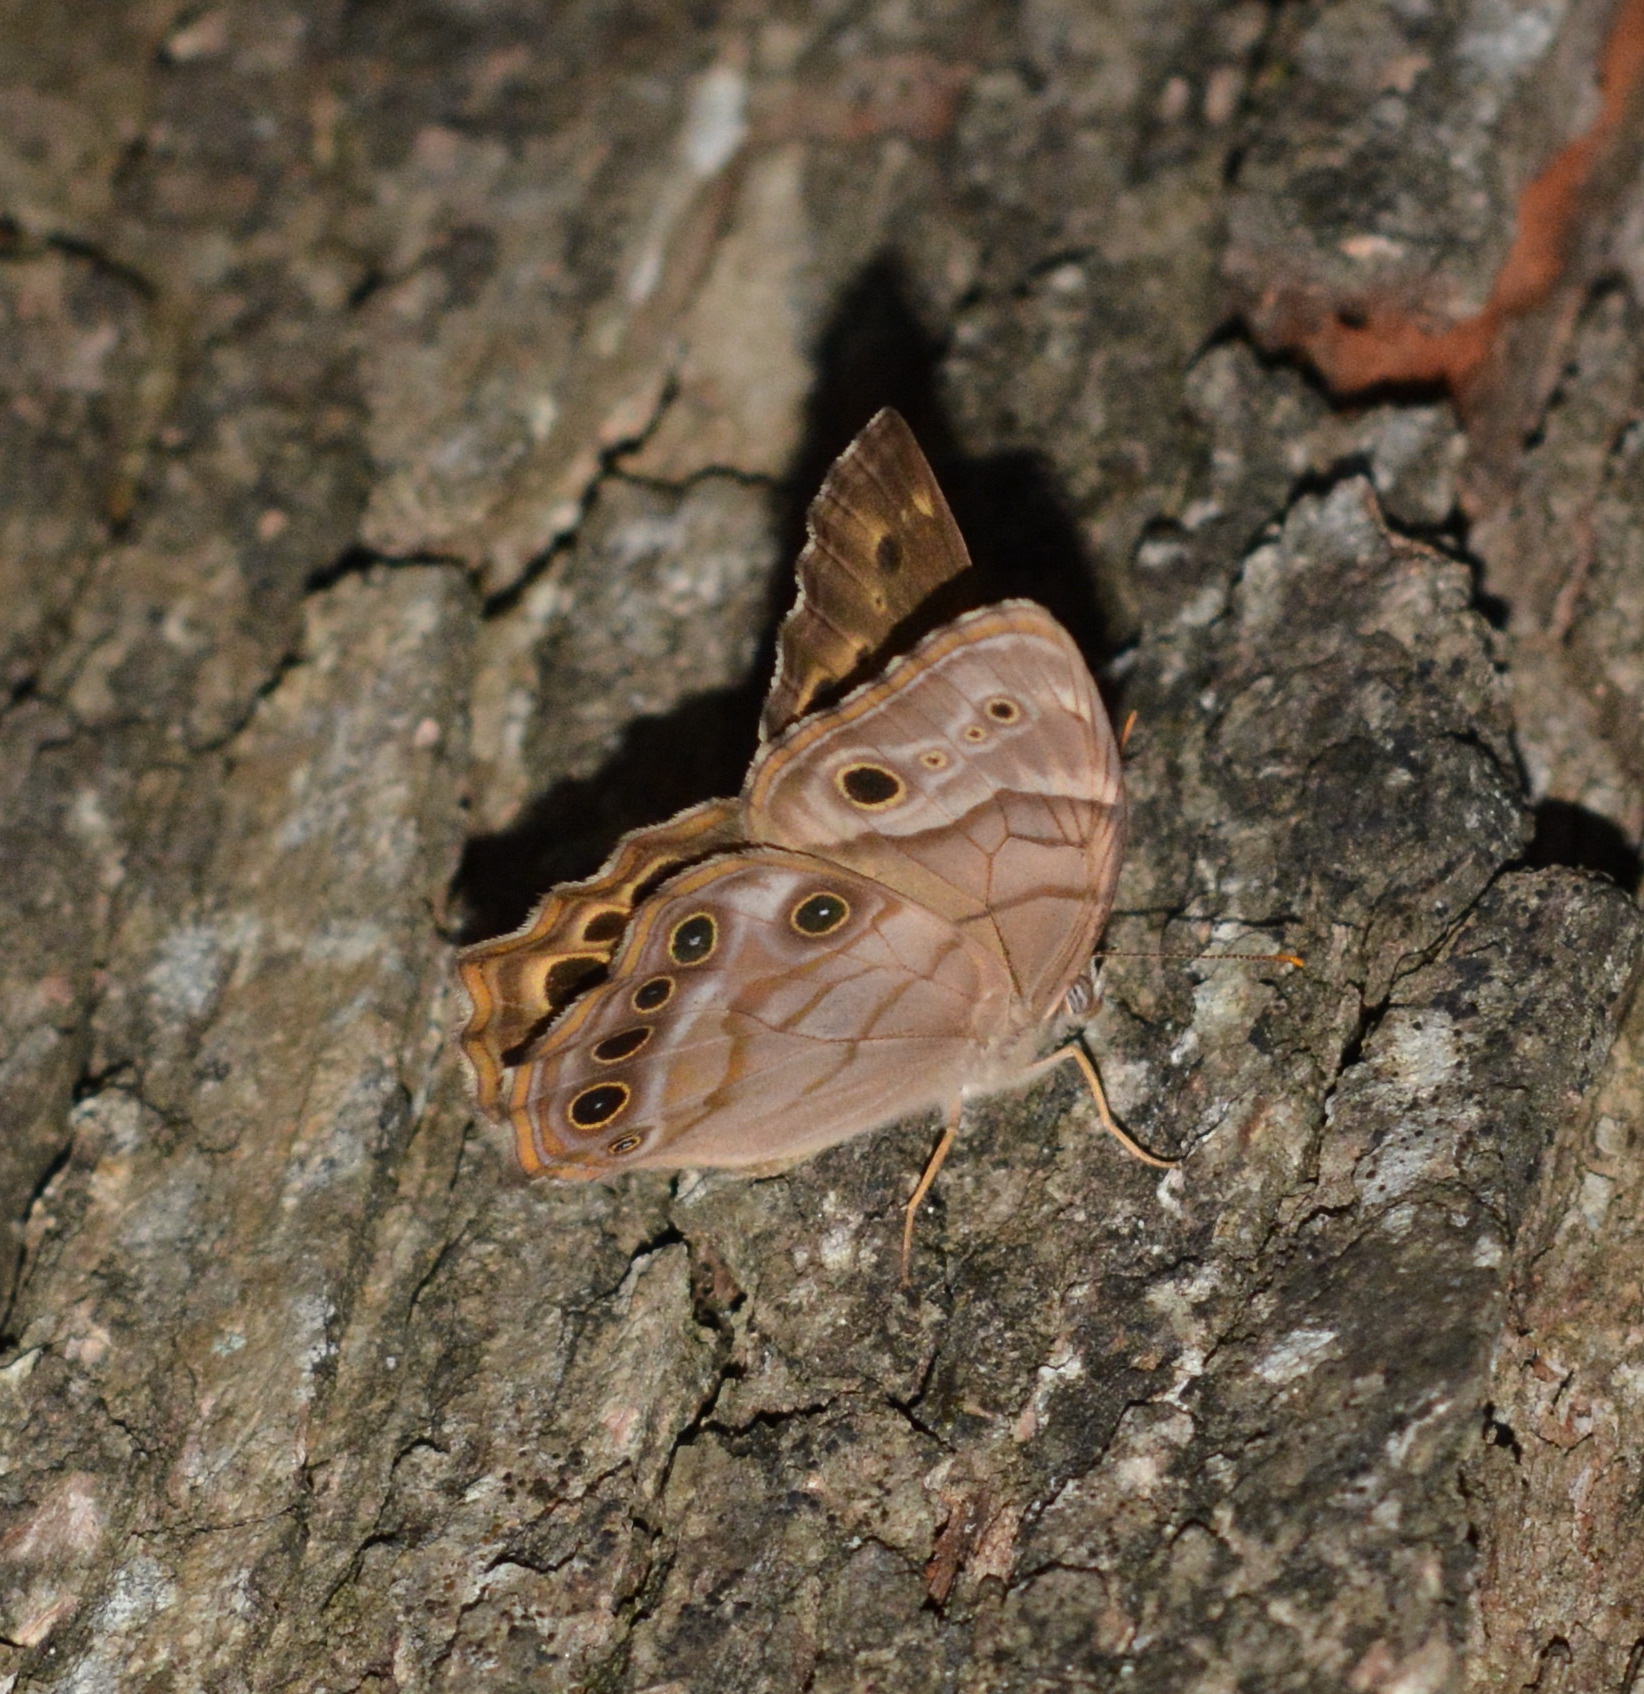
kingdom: Animalia
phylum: Arthropoda
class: Insecta
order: Lepidoptera
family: Nymphalidae
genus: Enodia
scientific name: Enodia portlandia
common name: Southern pearly-eye
